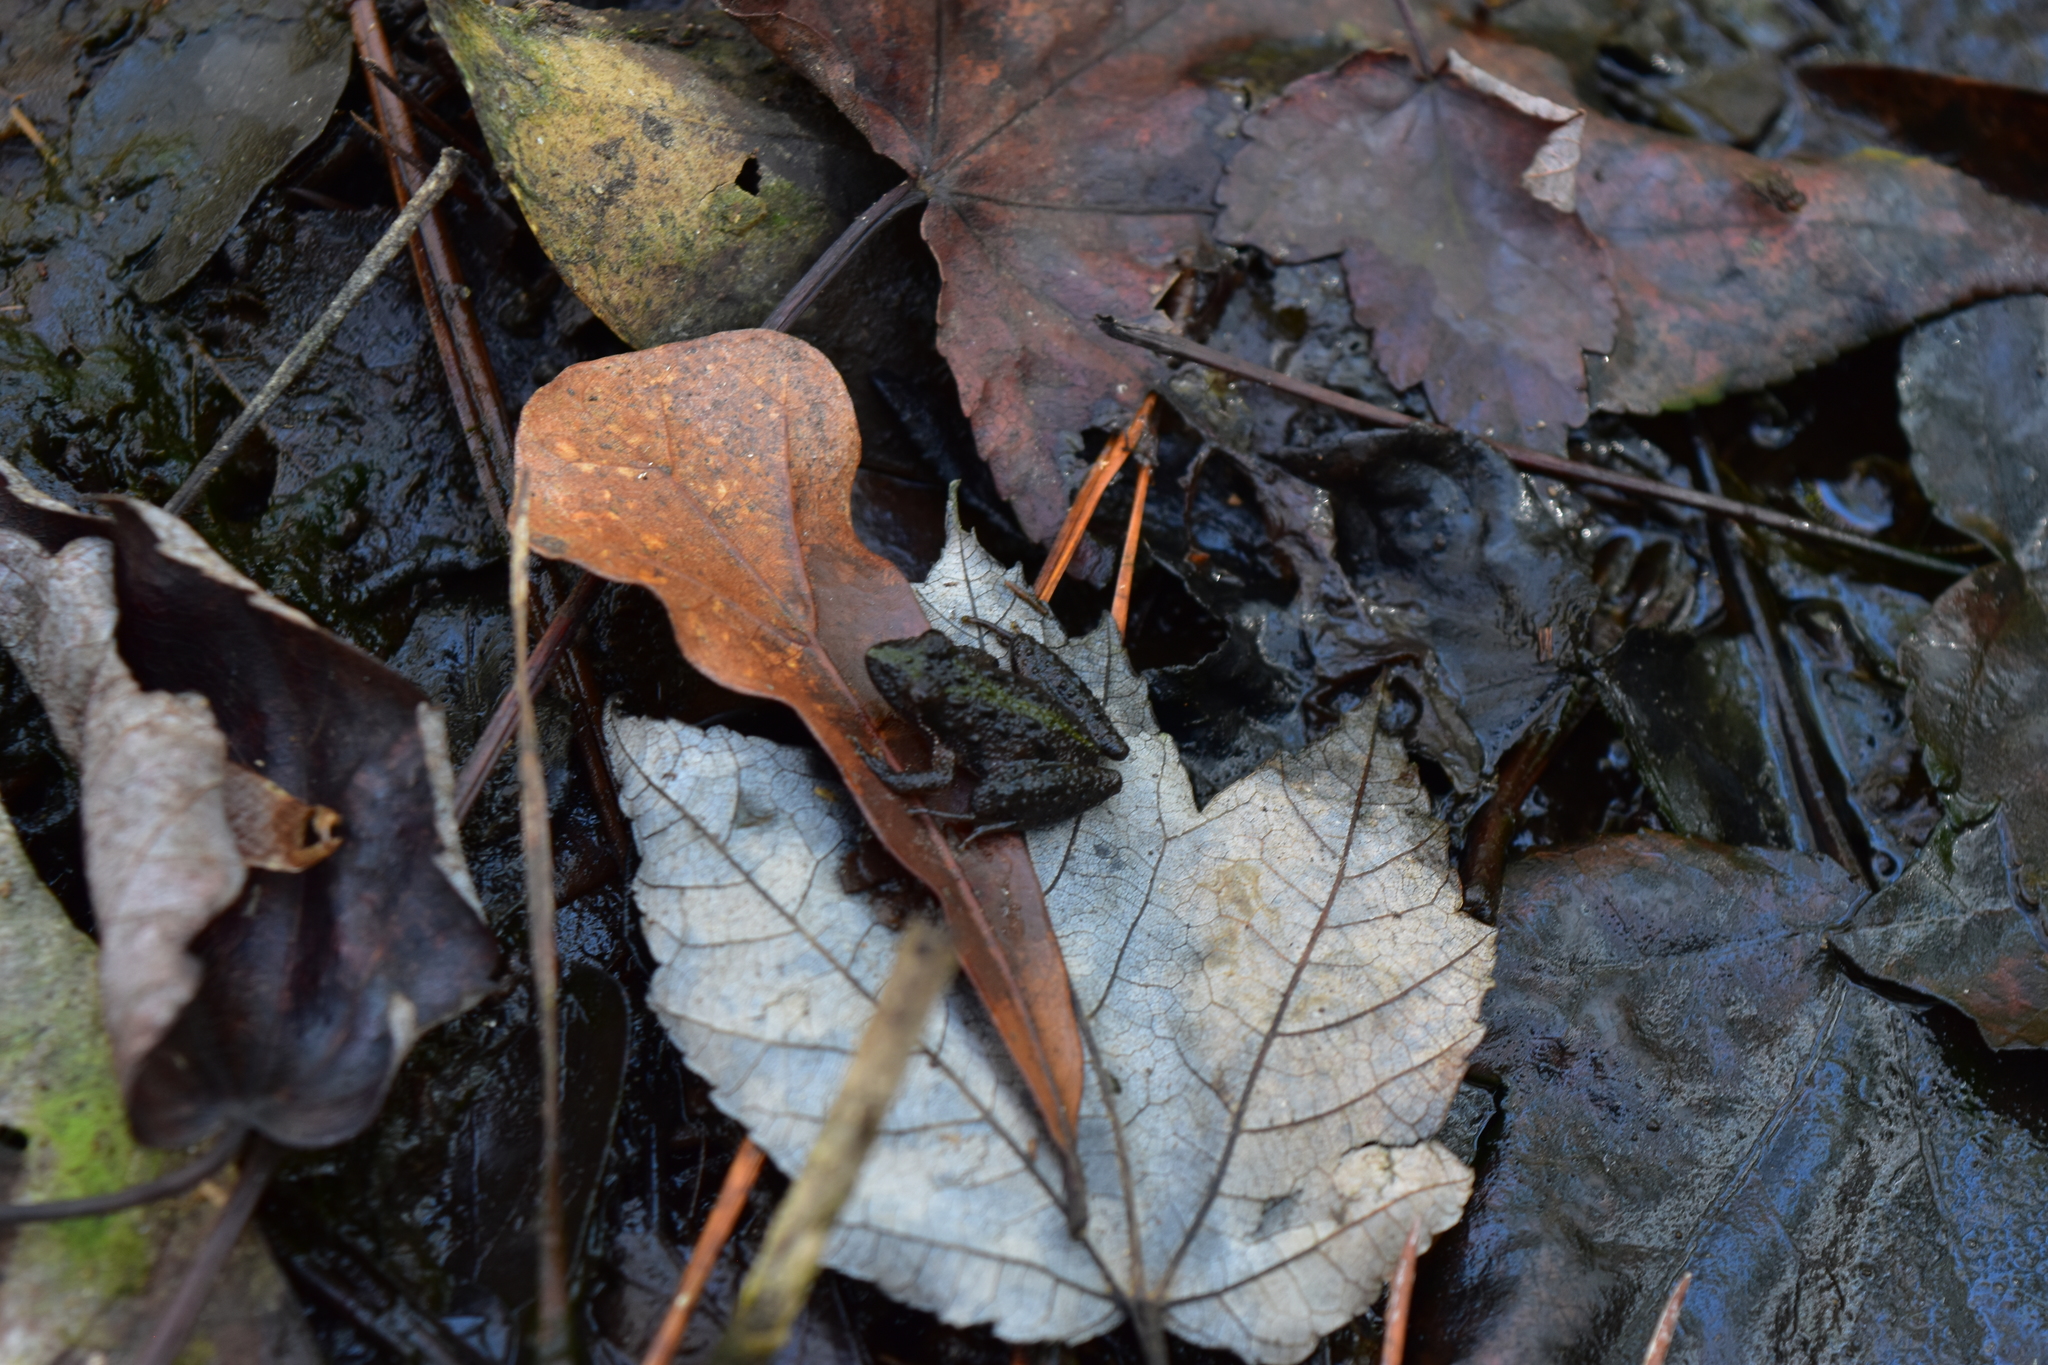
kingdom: Animalia
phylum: Chordata
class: Amphibia
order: Anura
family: Hylidae
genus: Acris
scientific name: Acris gryllus
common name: Southern cricket frog
